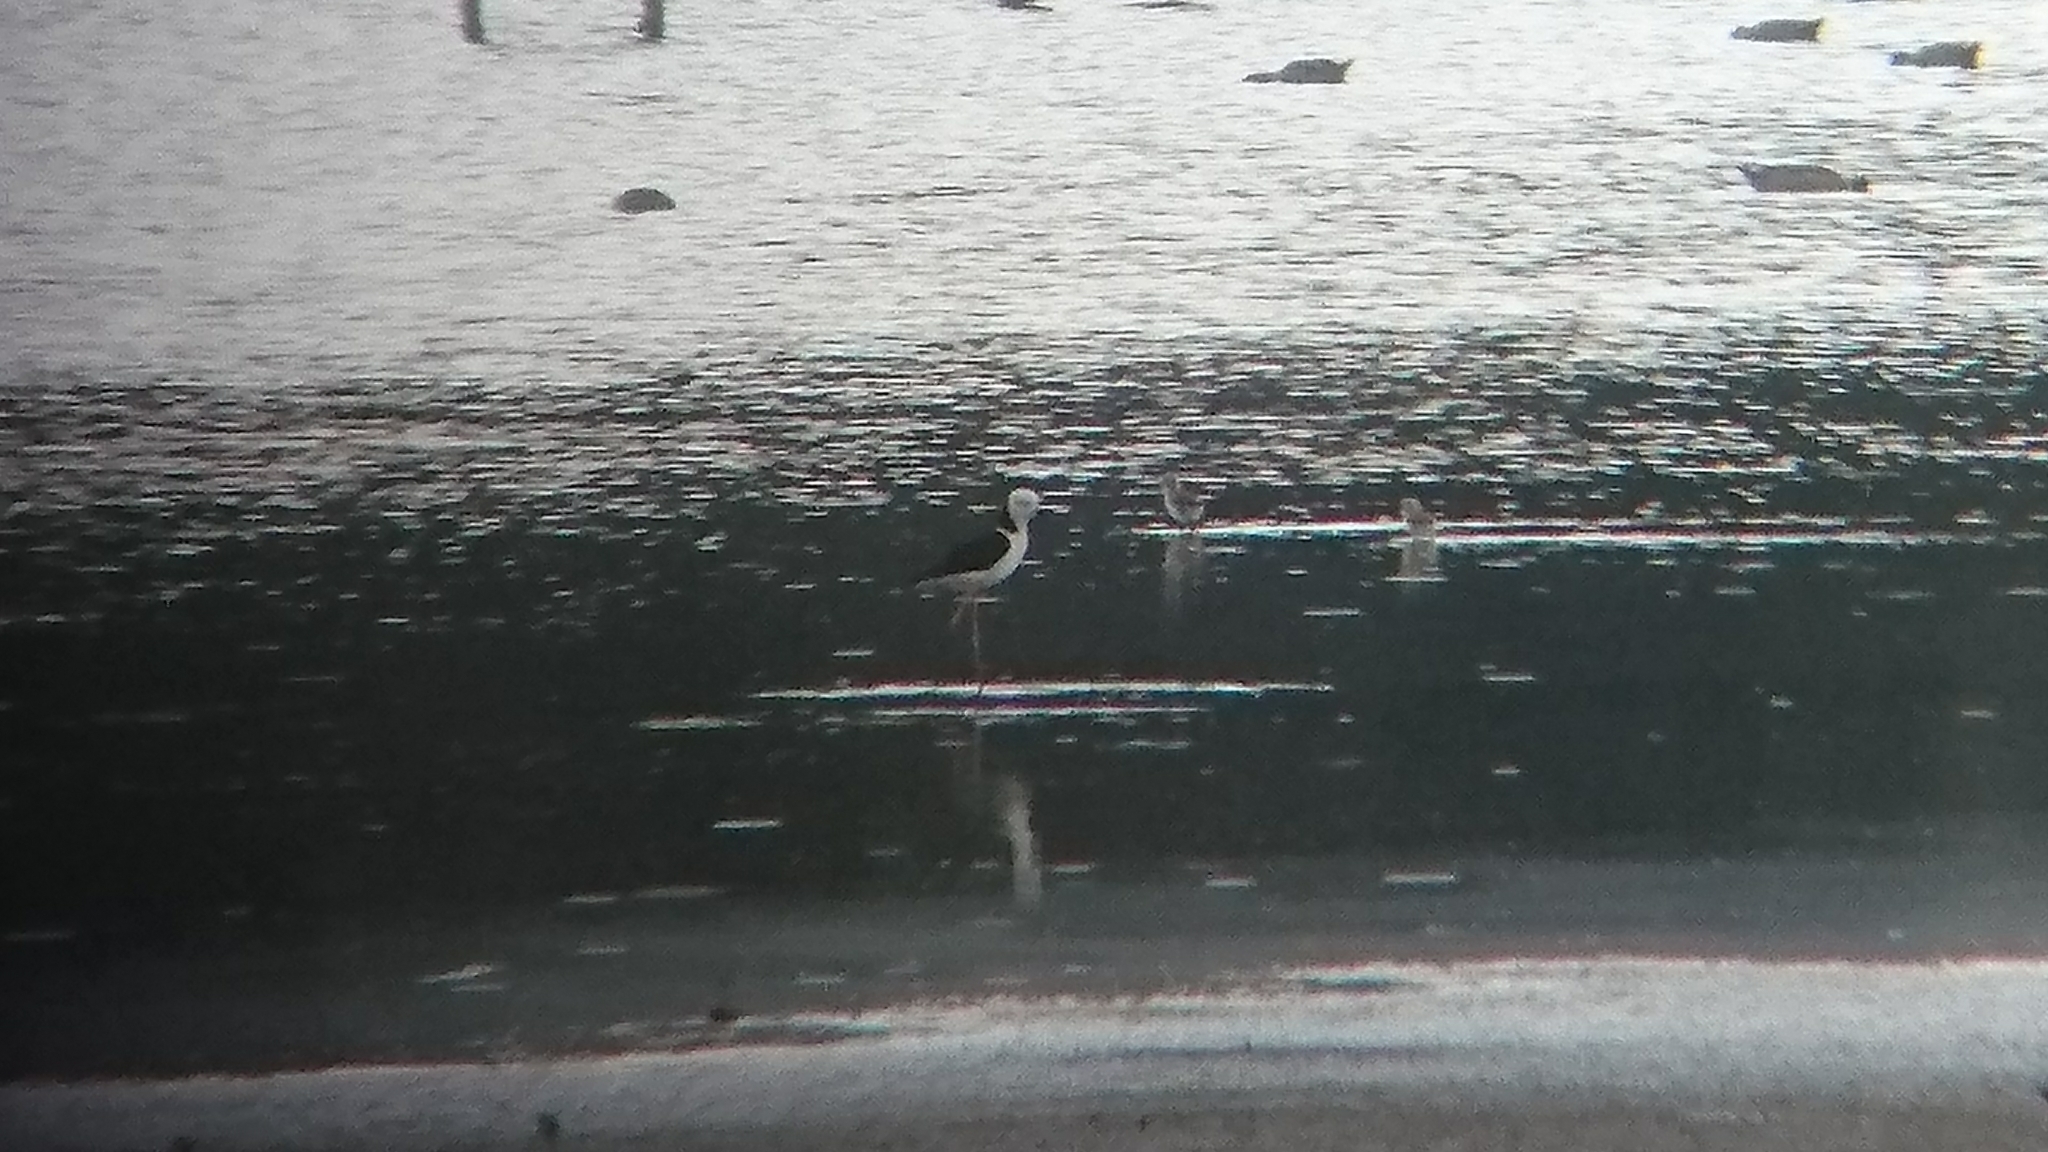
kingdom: Animalia
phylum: Chordata
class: Aves
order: Charadriiformes
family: Recurvirostridae
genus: Himantopus
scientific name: Himantopus leucocephalus
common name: White-headed stilt
